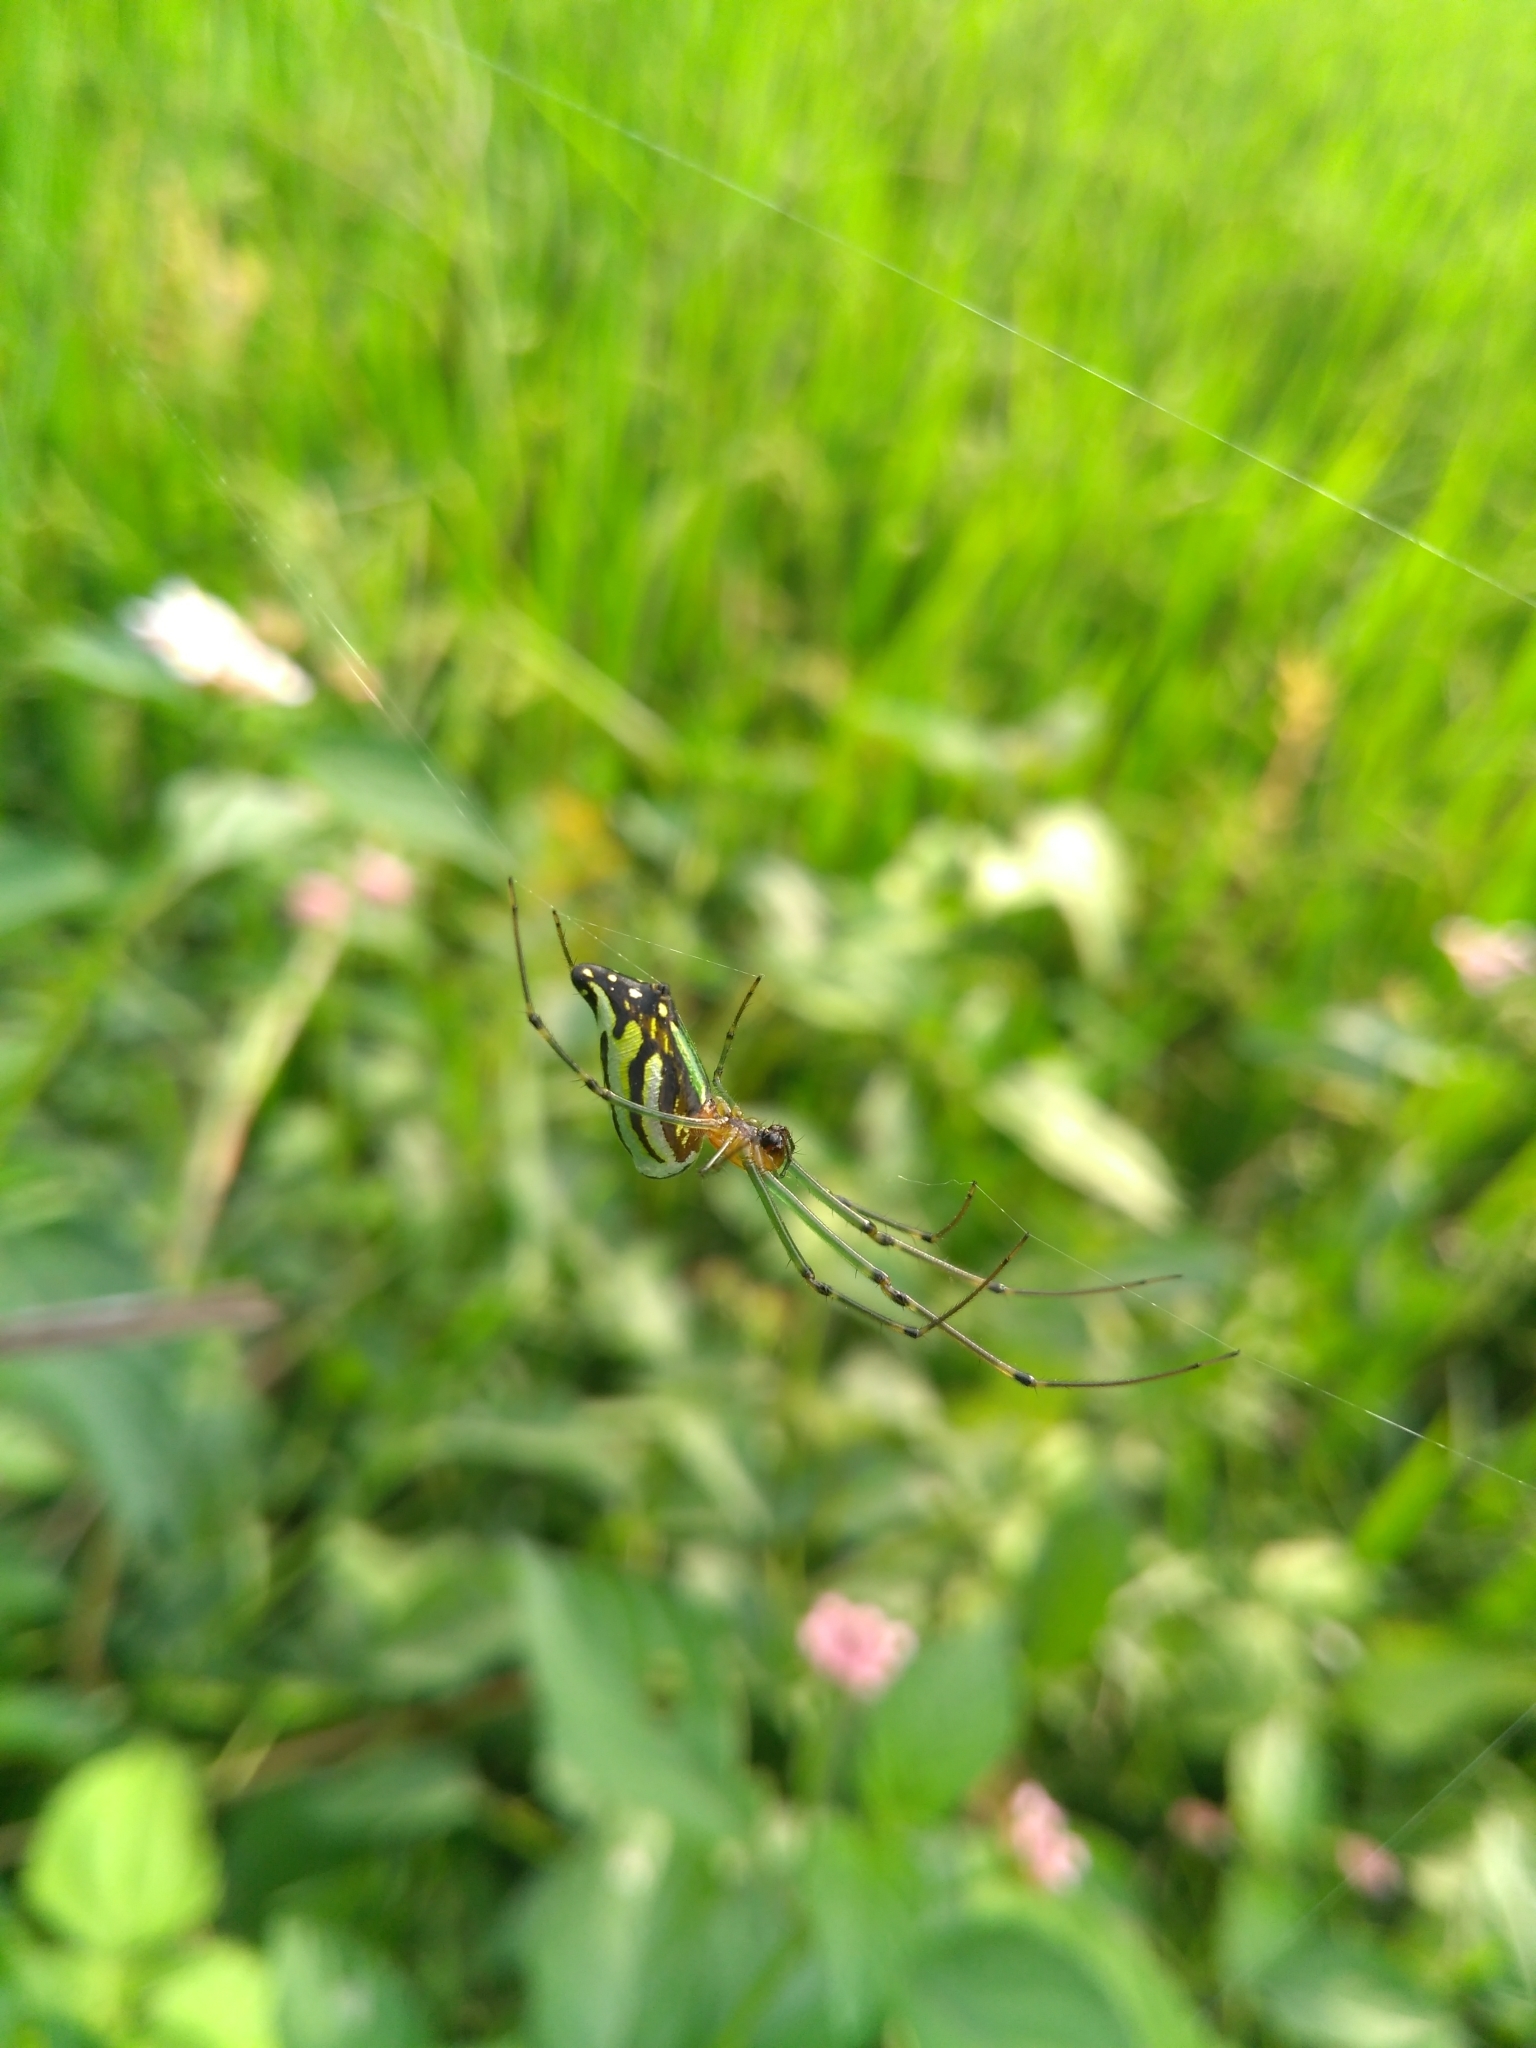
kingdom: Animalia
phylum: Arthropoda
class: Arachnida
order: Araneae
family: Tetragnathidae
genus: Leucauge
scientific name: Leucauge decorata
